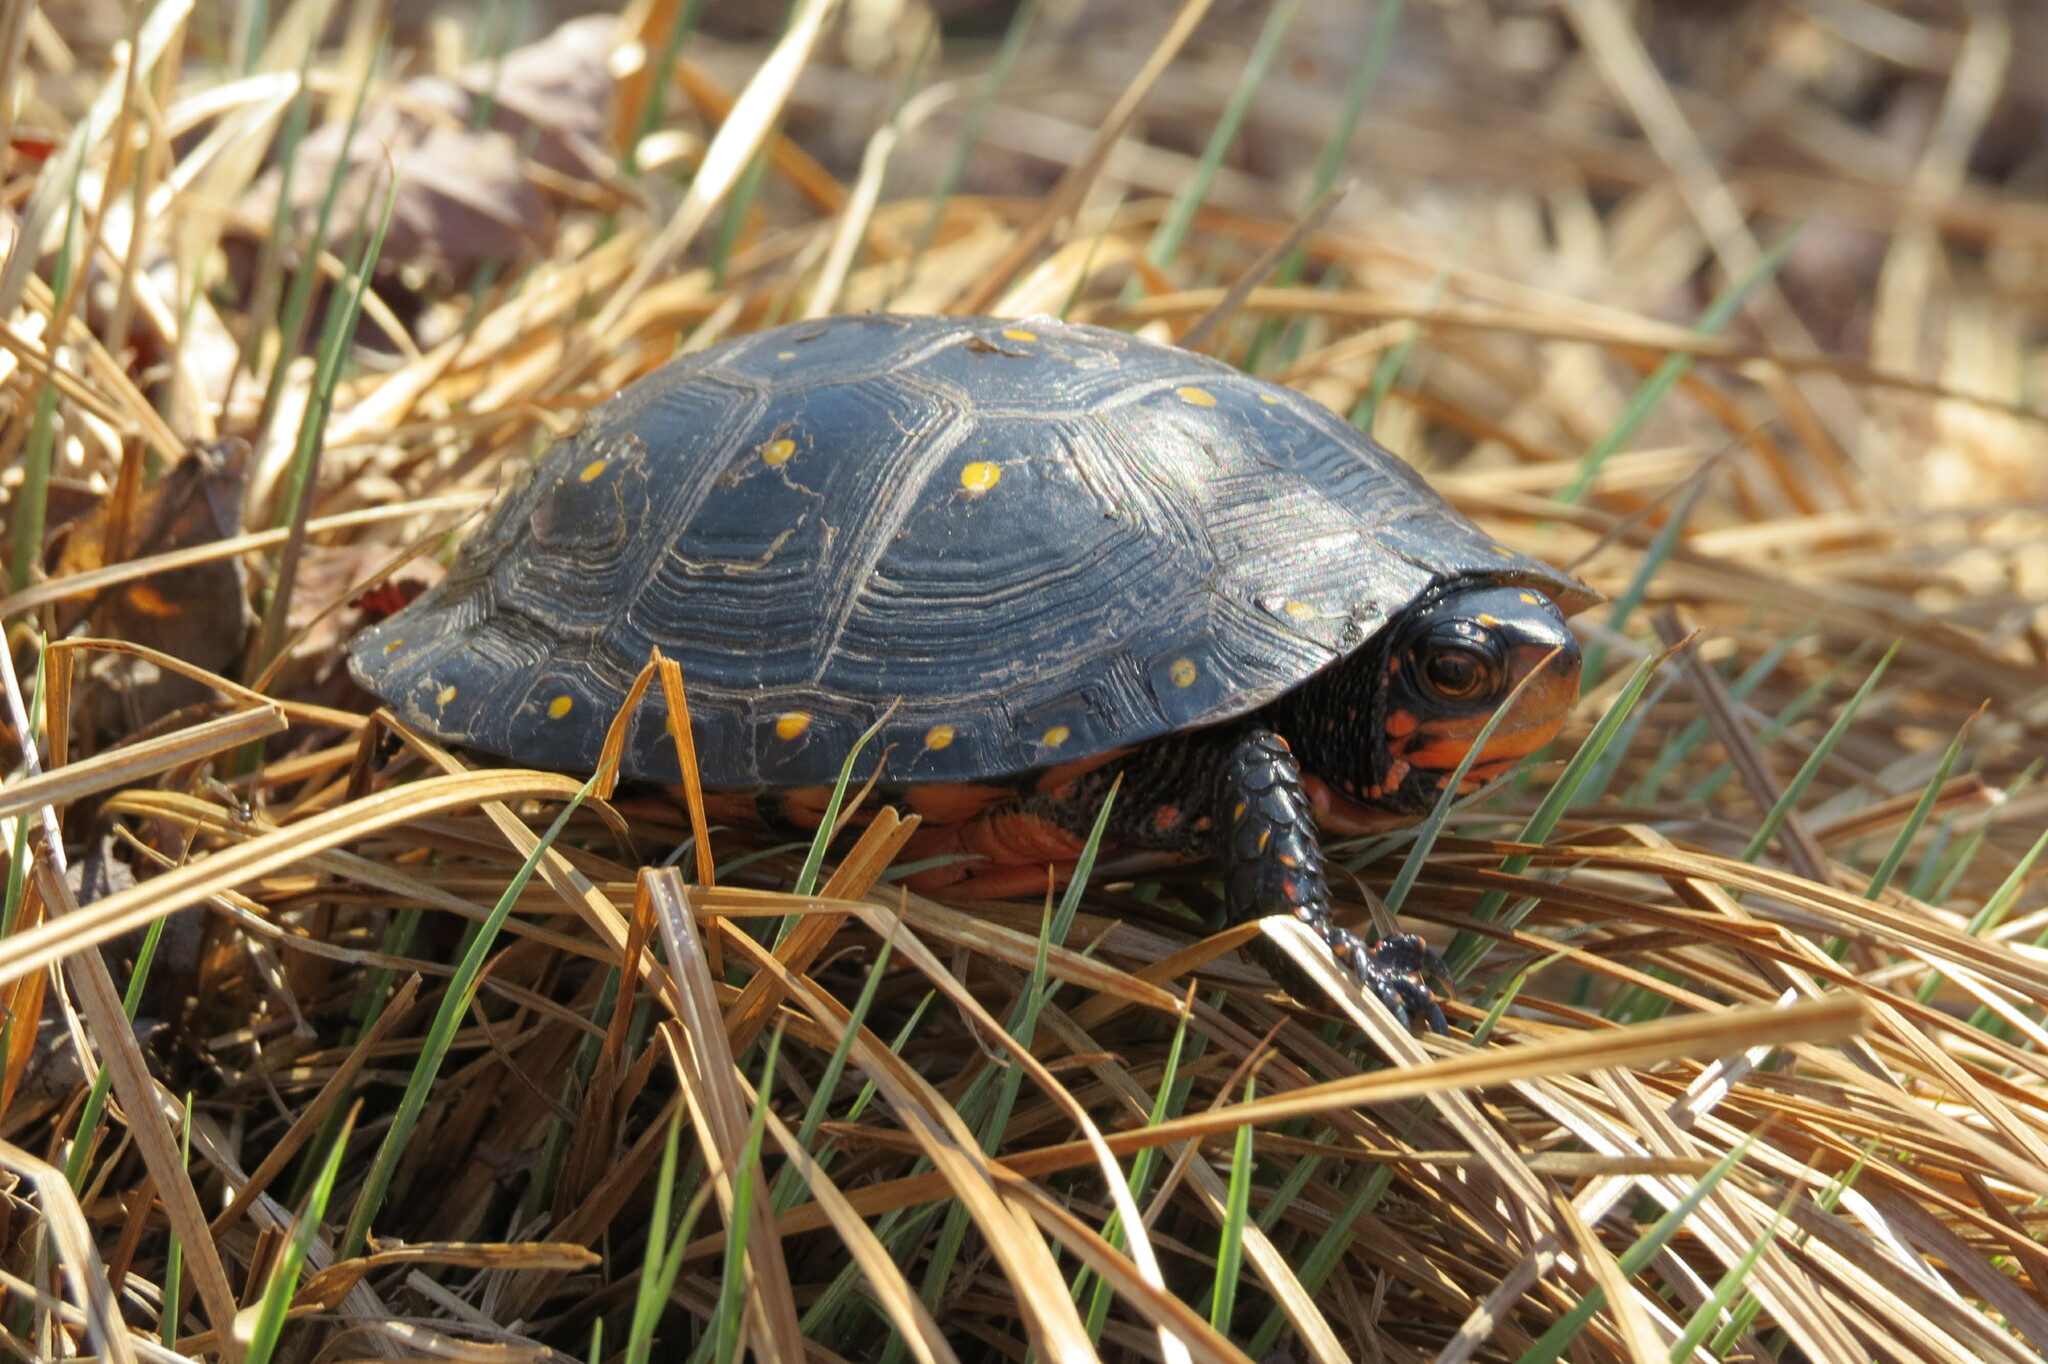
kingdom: Animalia
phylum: Chordata
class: Testudines
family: Emydidae
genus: Clemmys
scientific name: Clemmys guttata
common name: Spotted turtle
